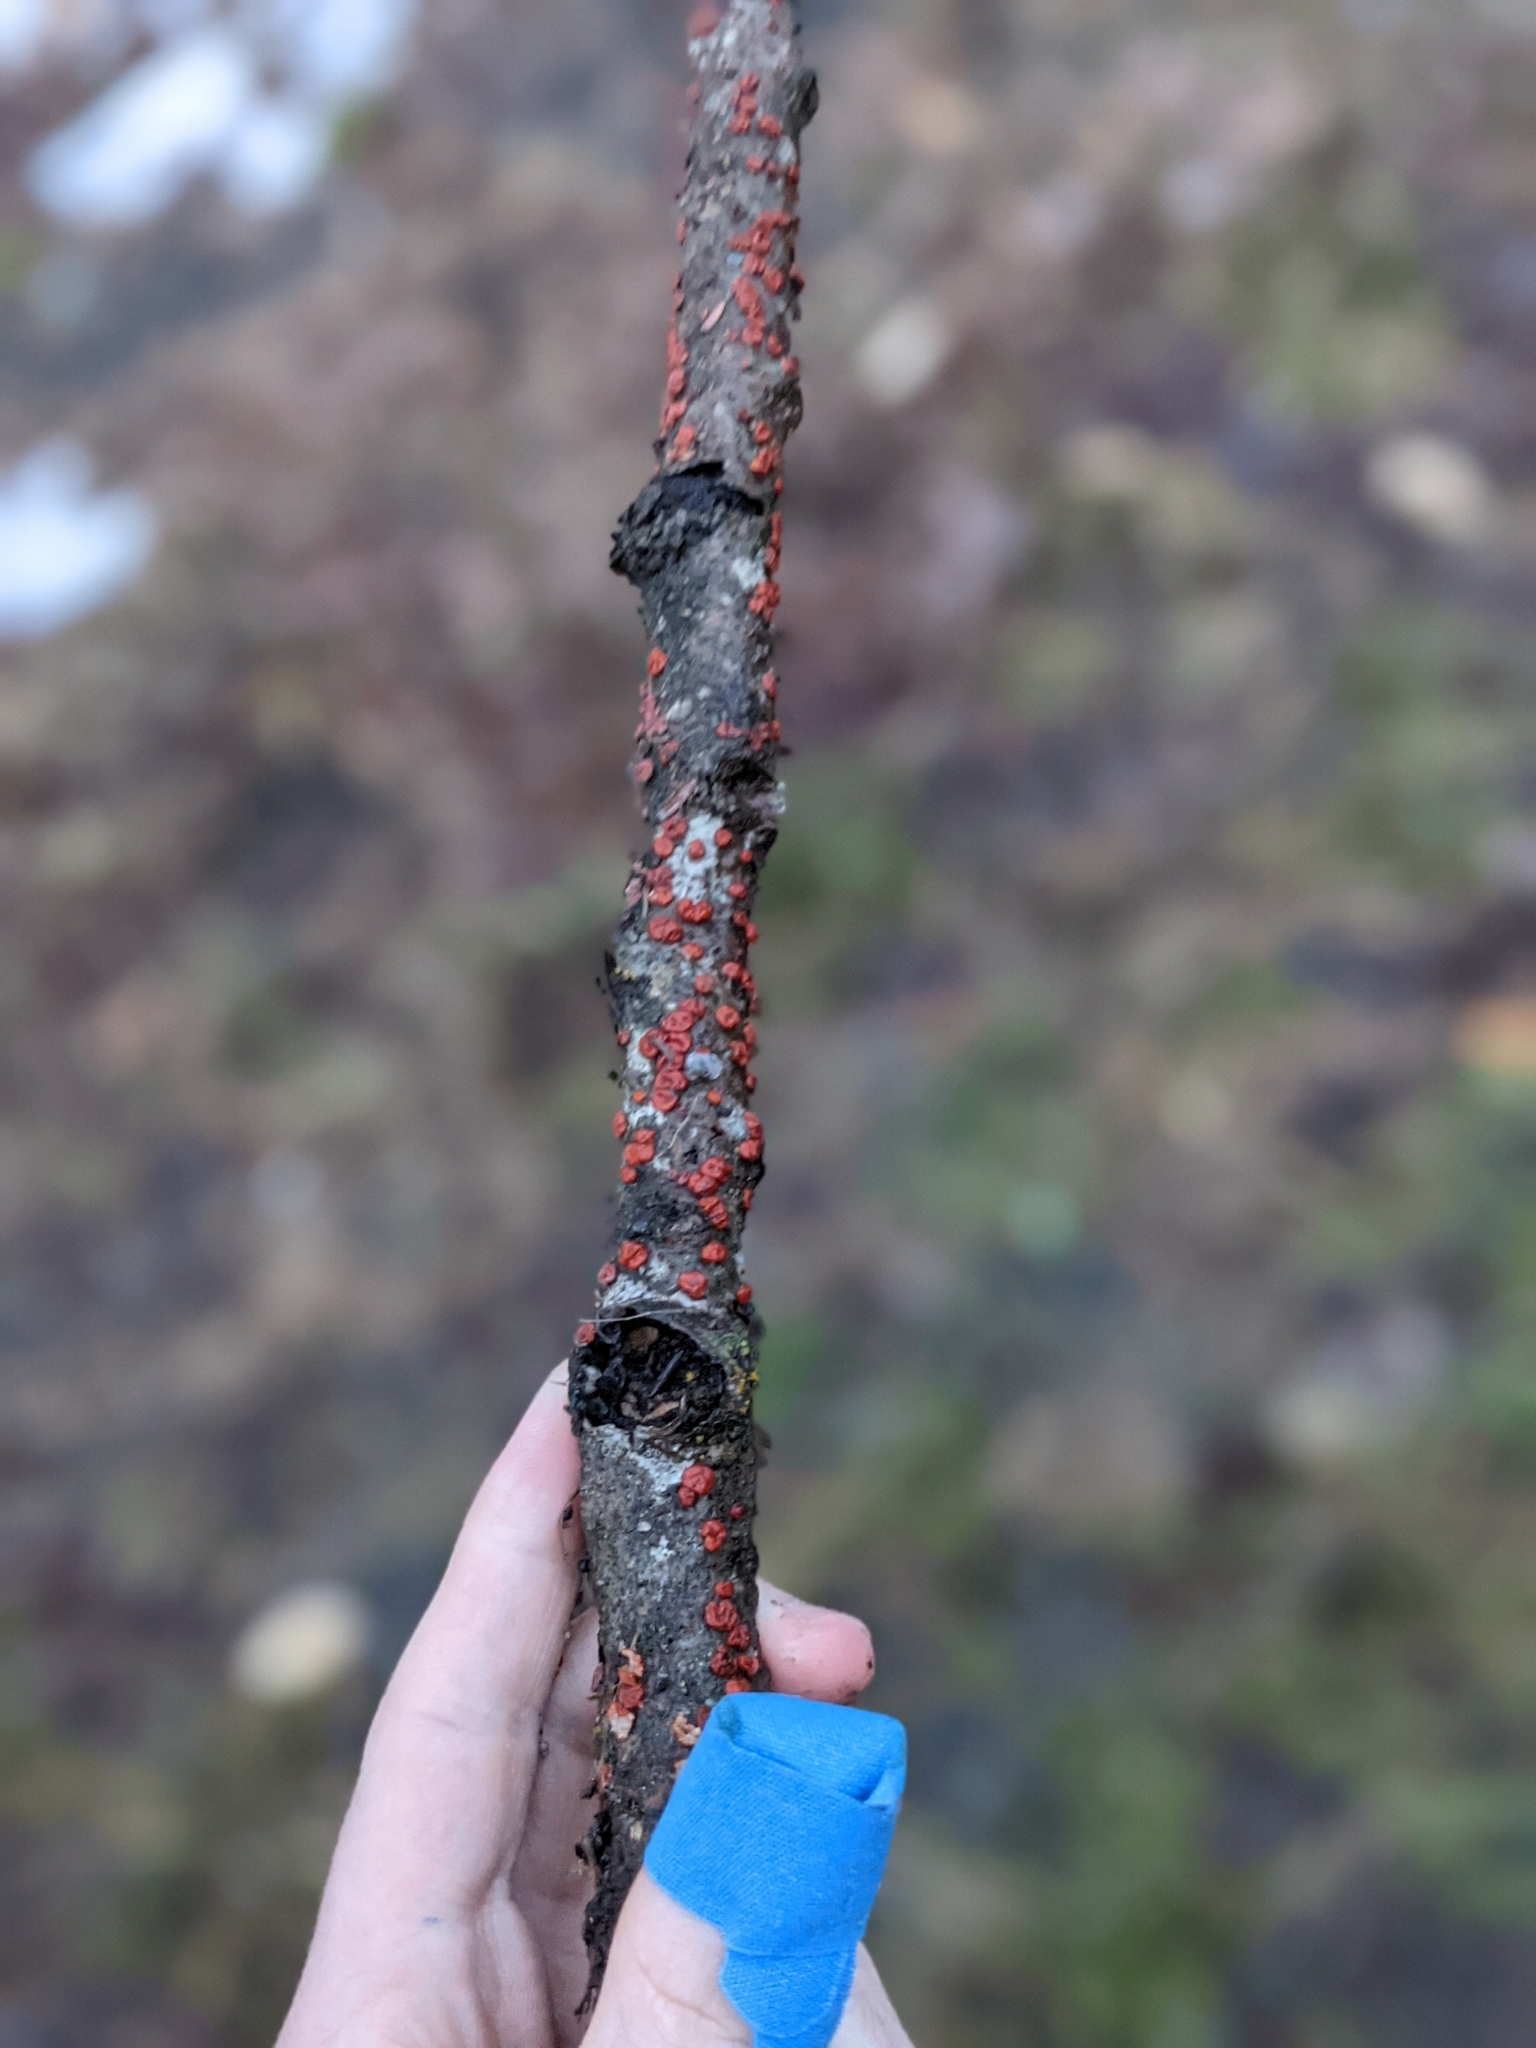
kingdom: Fungi
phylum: Basidiomycota
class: Agaricomycetes
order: Russulales
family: Peniophoraceae
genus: Peniophora
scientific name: Peniophora rufa
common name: Red tree brain fungus
